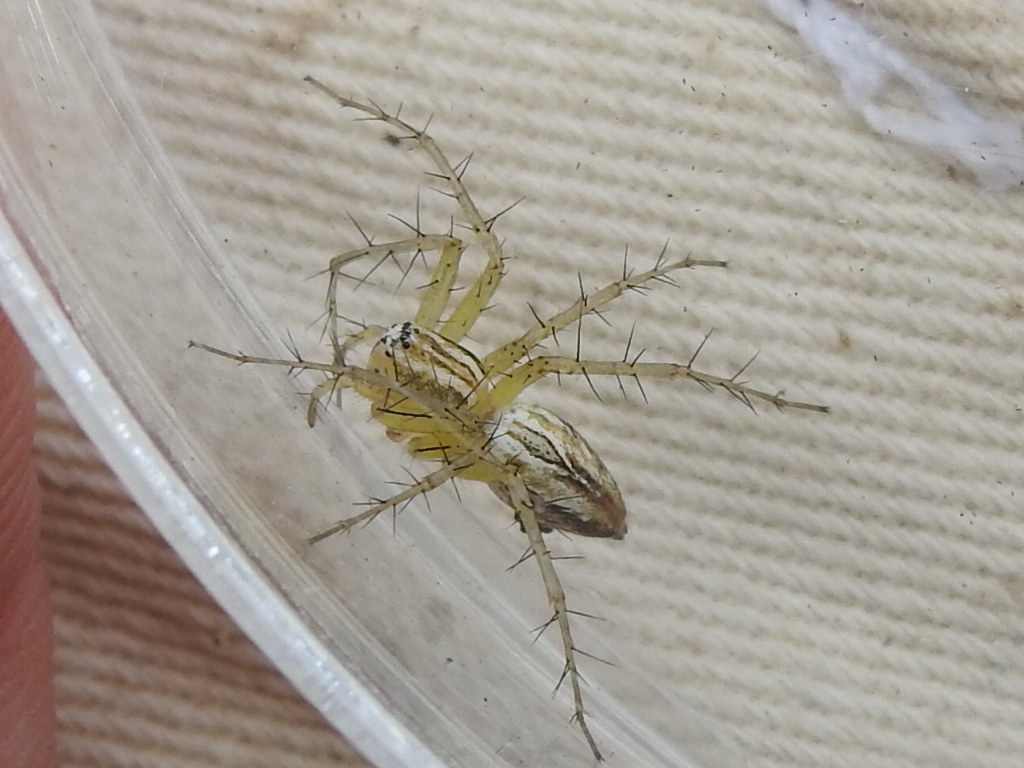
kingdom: Animalia
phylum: Arthropoda
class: Arachnida
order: Araneae
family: Oxyopidae
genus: Oxyopes
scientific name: Oxyopes salticus
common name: Lynx spiders
